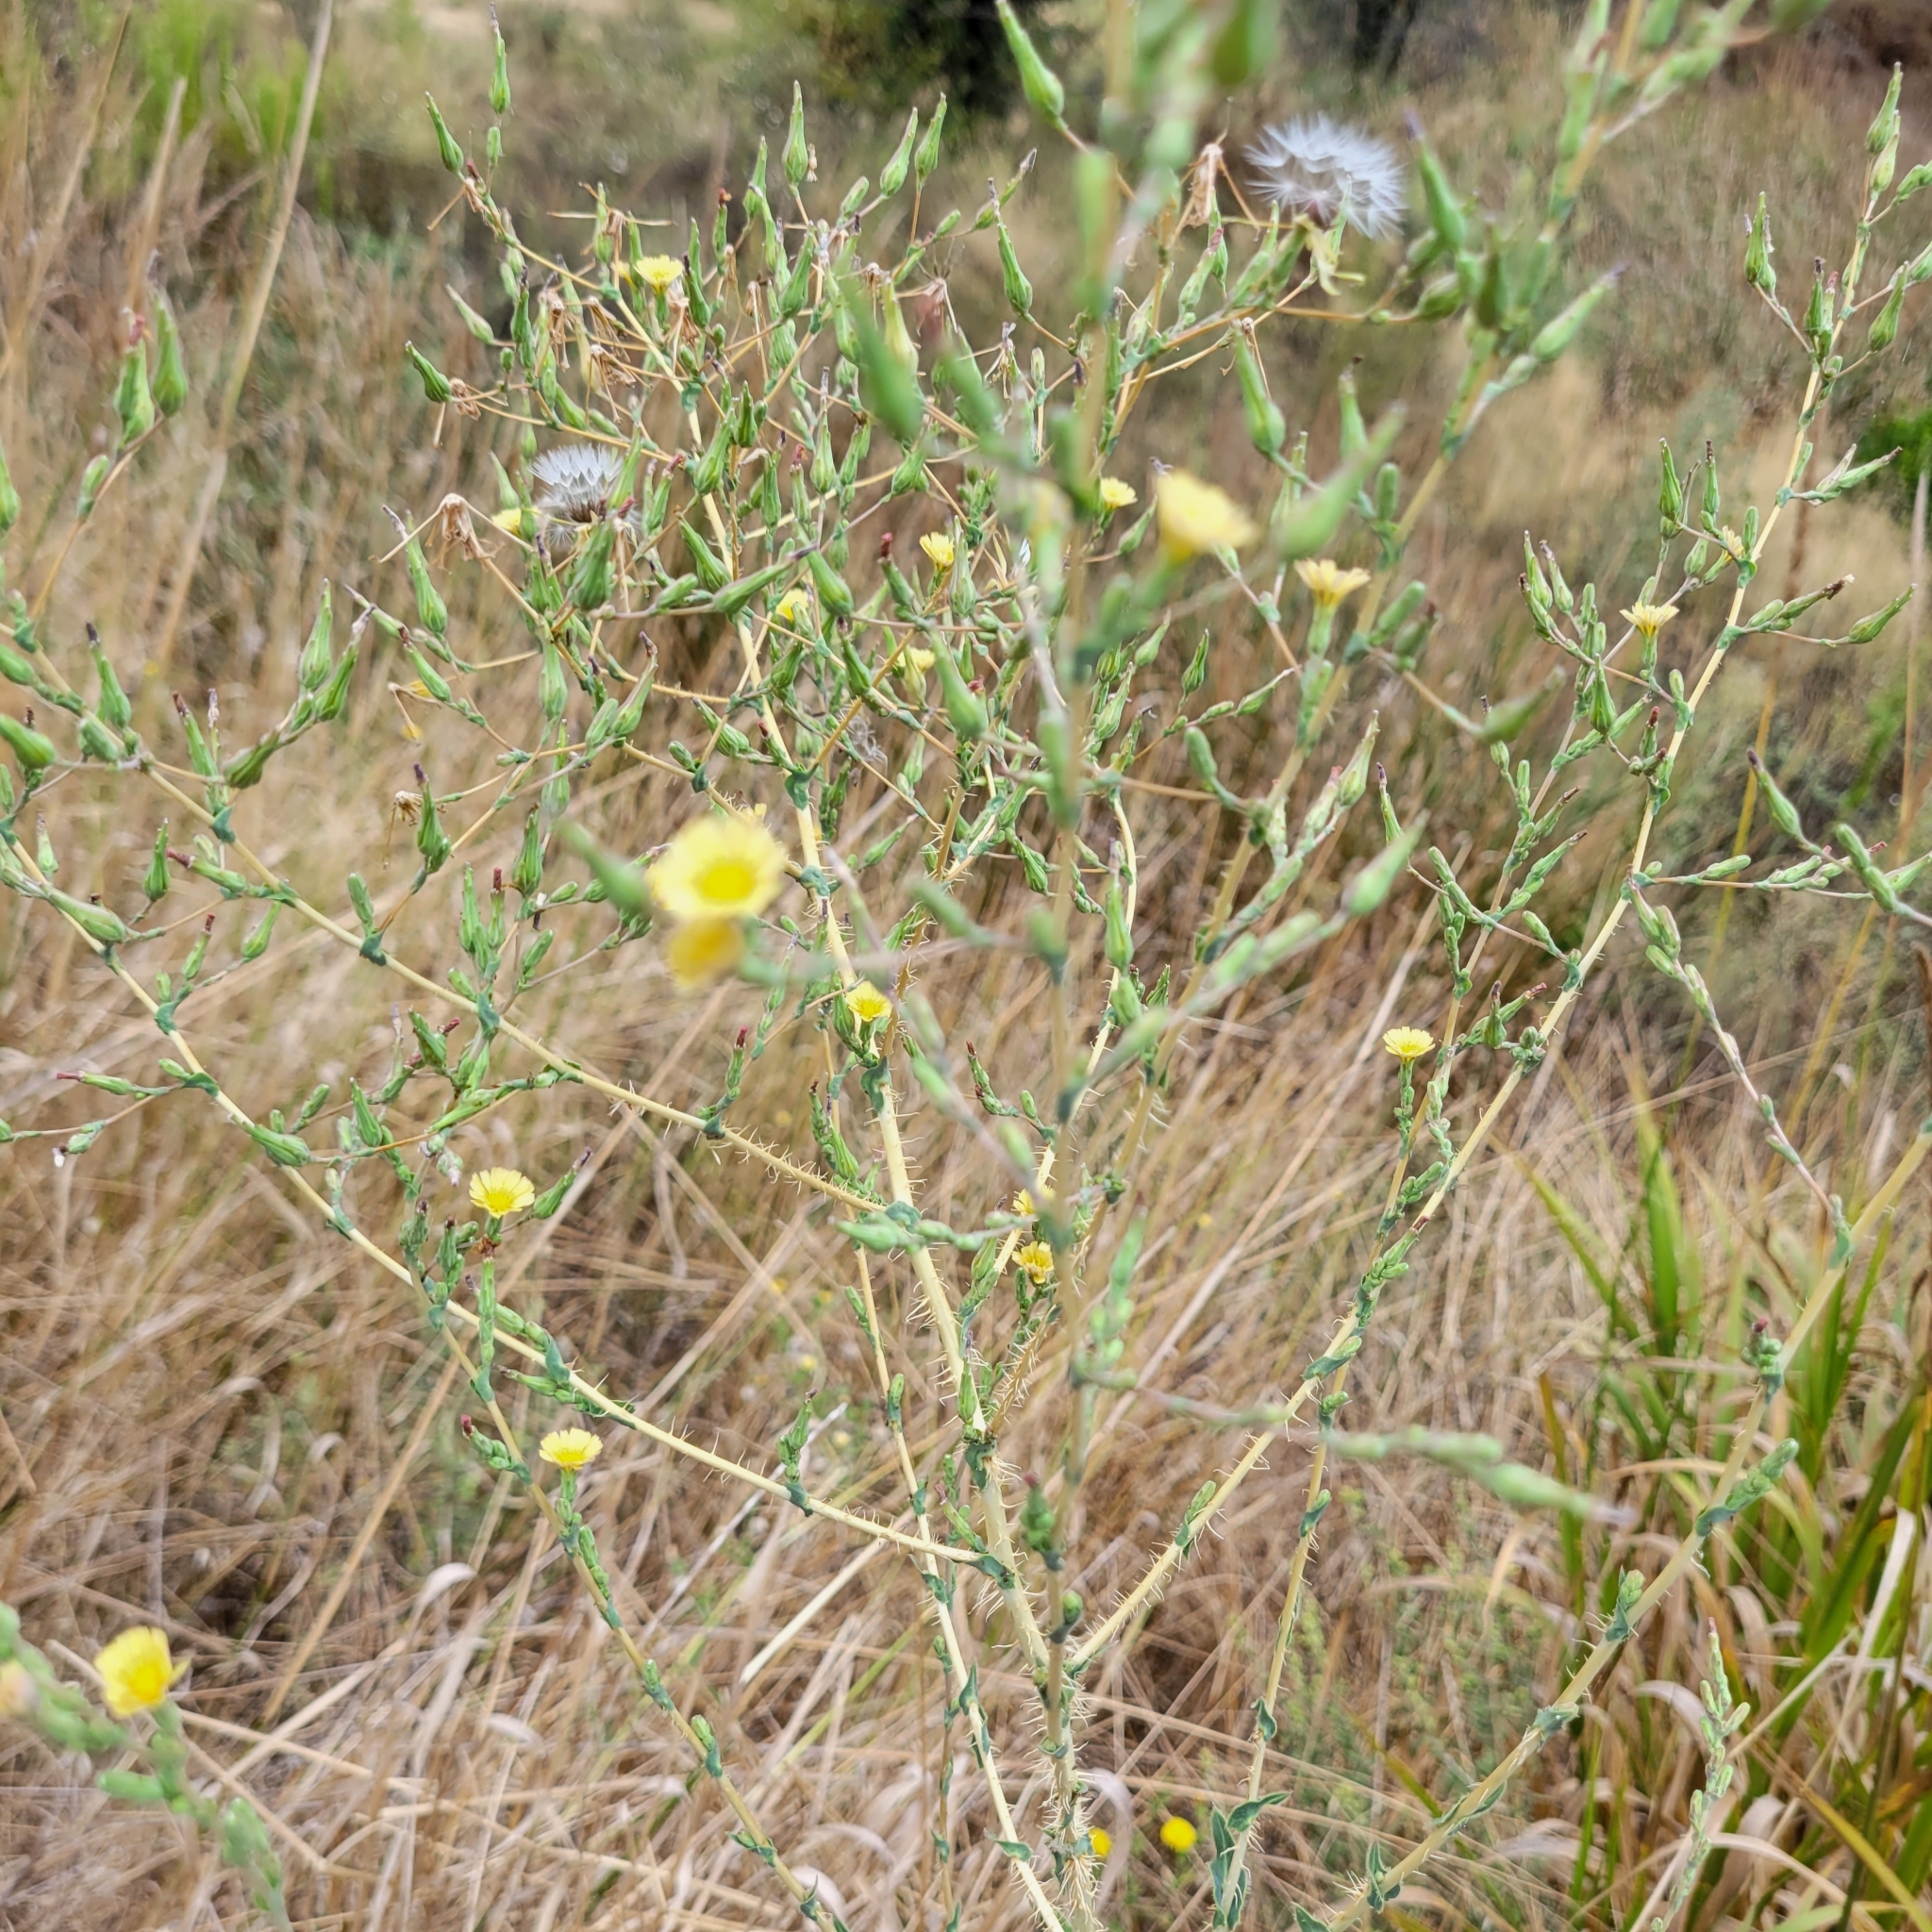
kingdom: Plantae
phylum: Tracheophyta
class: Magnoliopsida
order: Asterales
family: Asteraceae
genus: Lactuca
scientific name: Lactuca serriola
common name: Prickly lettuce
